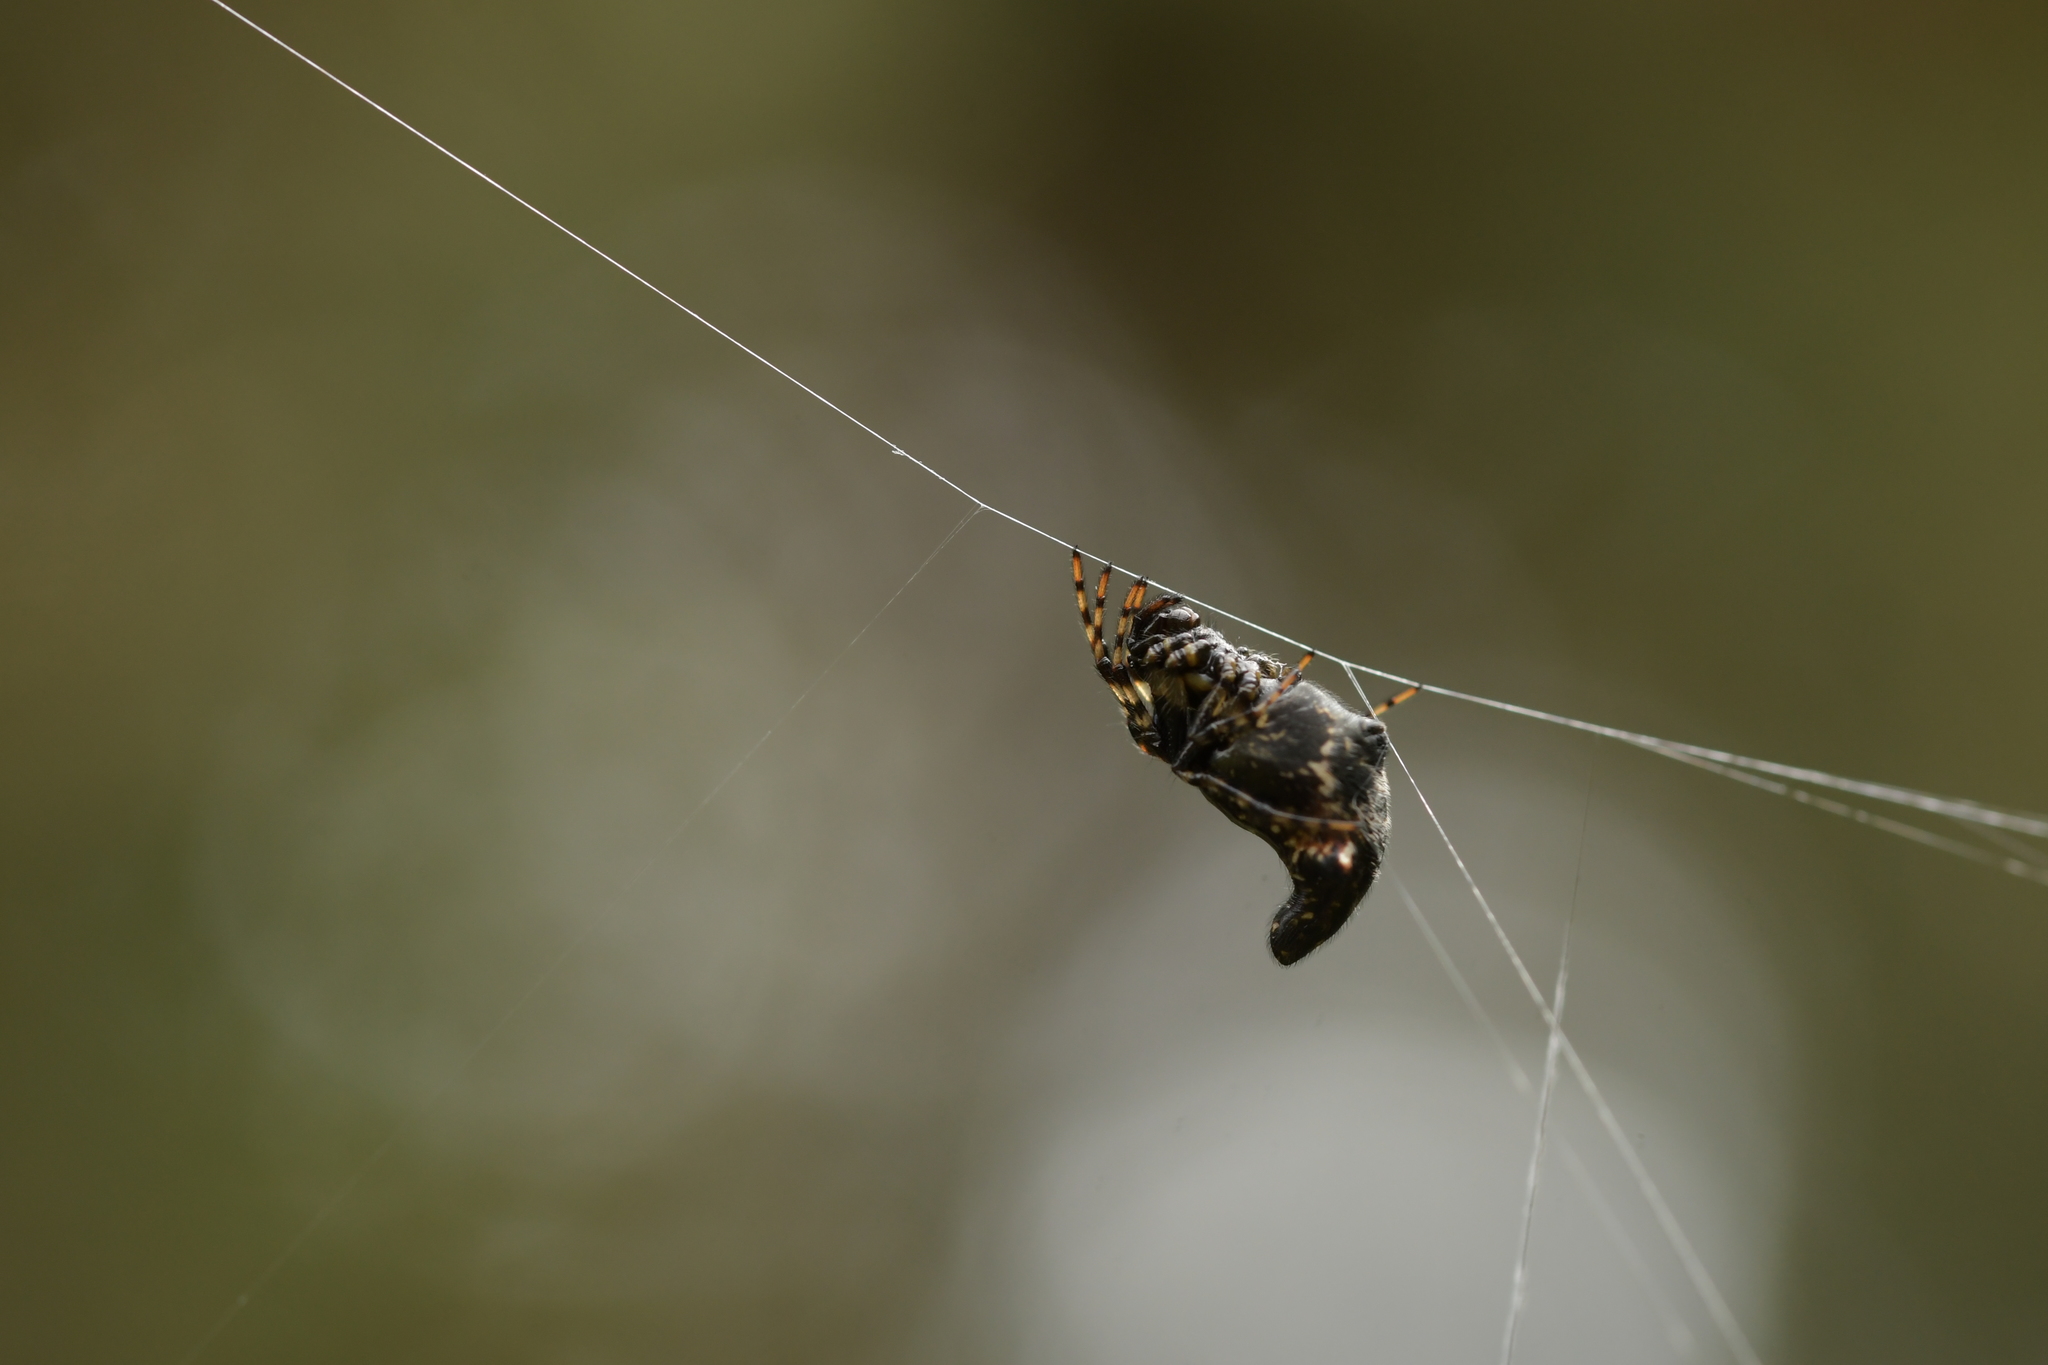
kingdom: Animalia
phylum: Arthropoda
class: Arachnida
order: Araneae
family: Araneidae
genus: Cyclosa
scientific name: Cyclosa trilobata
